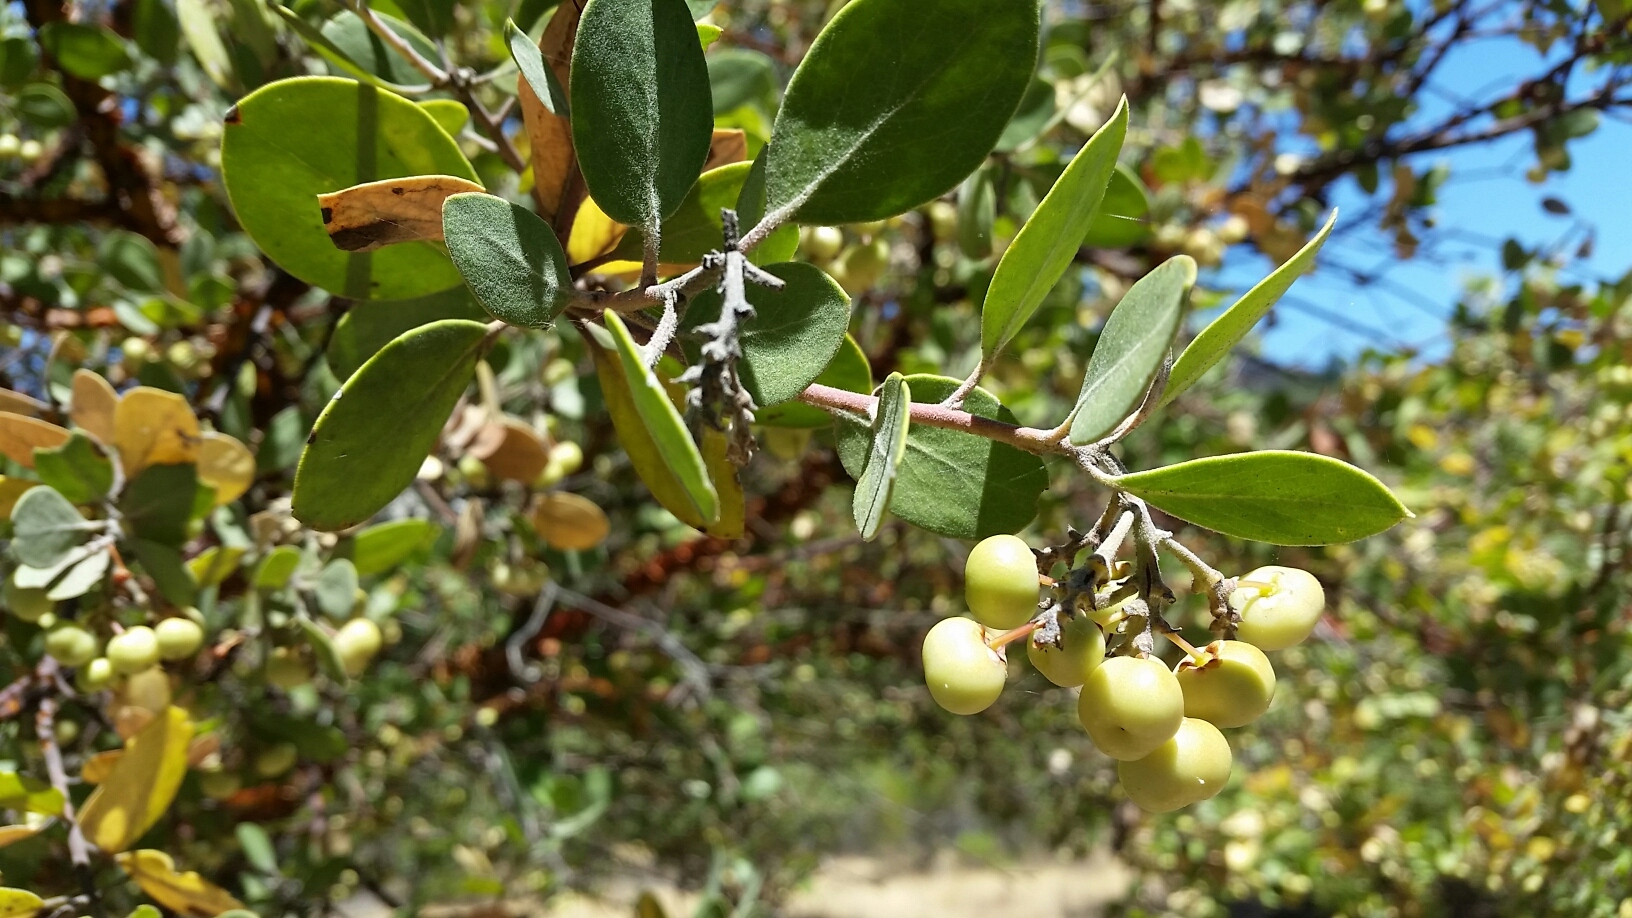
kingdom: Plantae
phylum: Tracheophyta
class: Magnoliopsida
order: Ericales
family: Ericaceae
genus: Arctostaphylos
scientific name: Arctostaphylos manzanita
